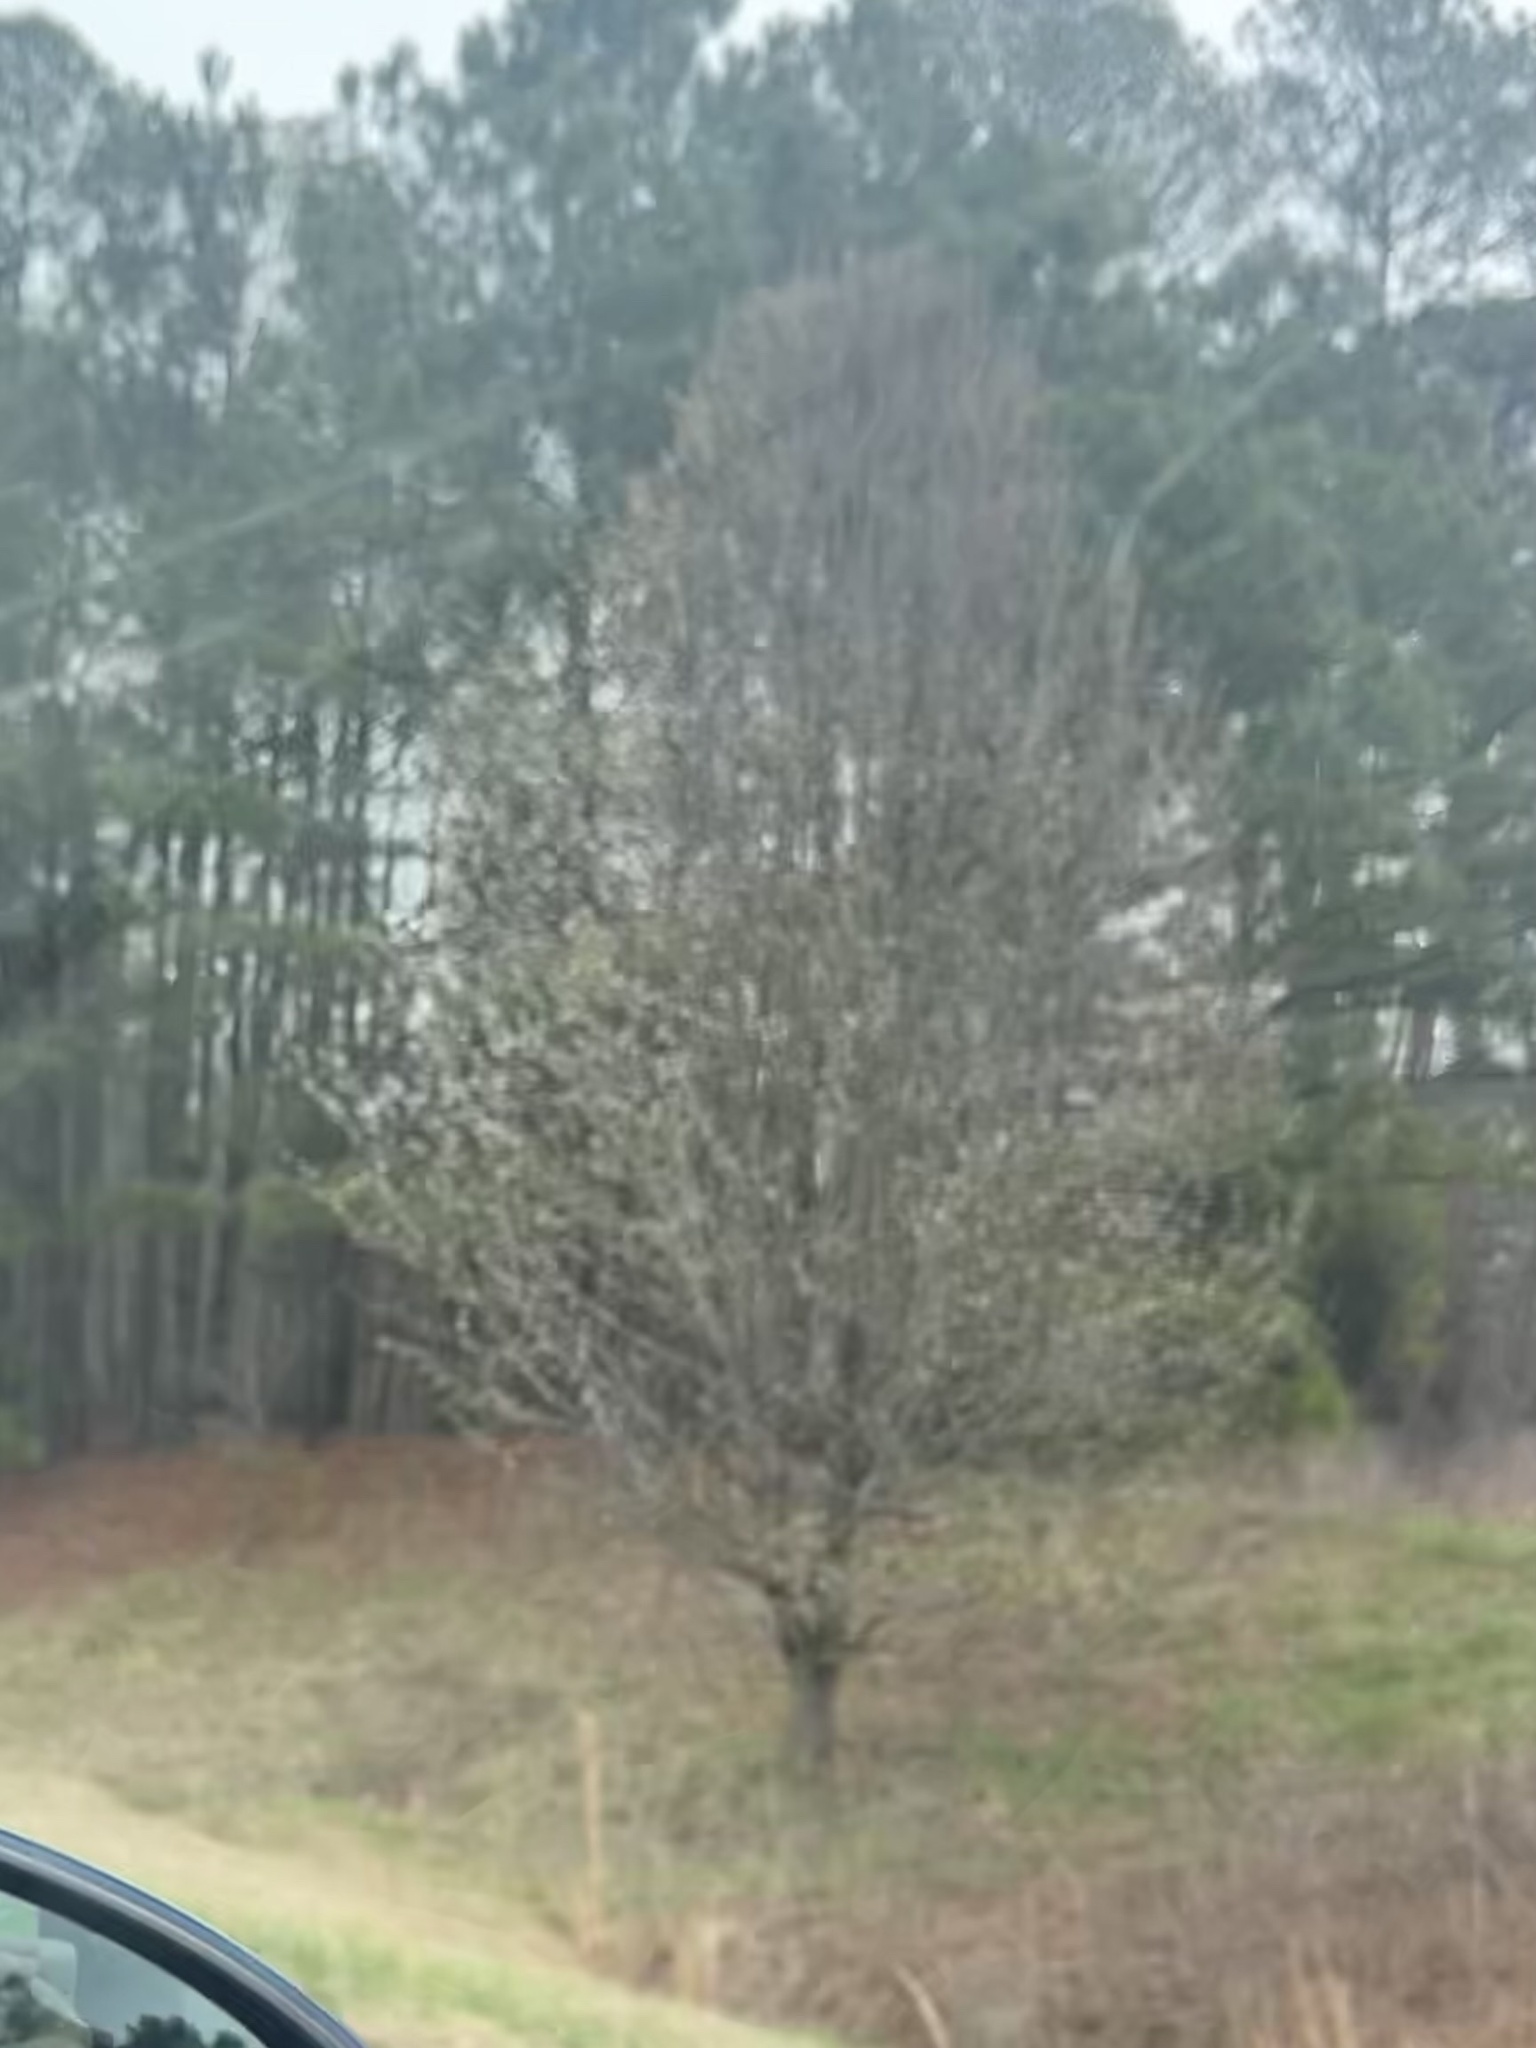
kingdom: Plantae
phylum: Tracheophyta
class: Magnoliopsida
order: Rosales
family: Rosaceae
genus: Pyrus
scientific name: Pyrus calleryana
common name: Callery pear
